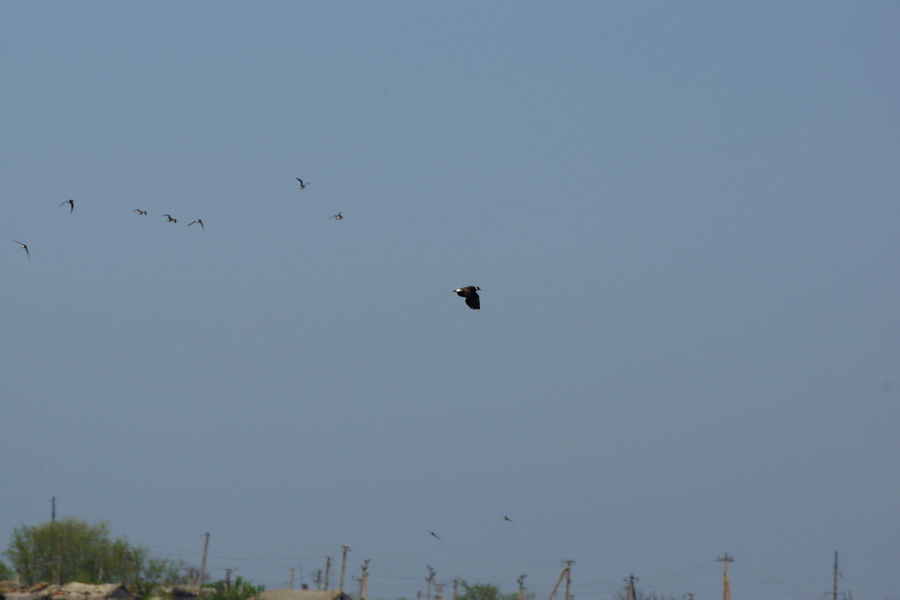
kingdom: Animalia
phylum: Chordata
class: Aves
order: Charadriiformes
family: Charadriidae
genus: Vanellus
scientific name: Vanellus vanellus
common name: Northern lapwing
